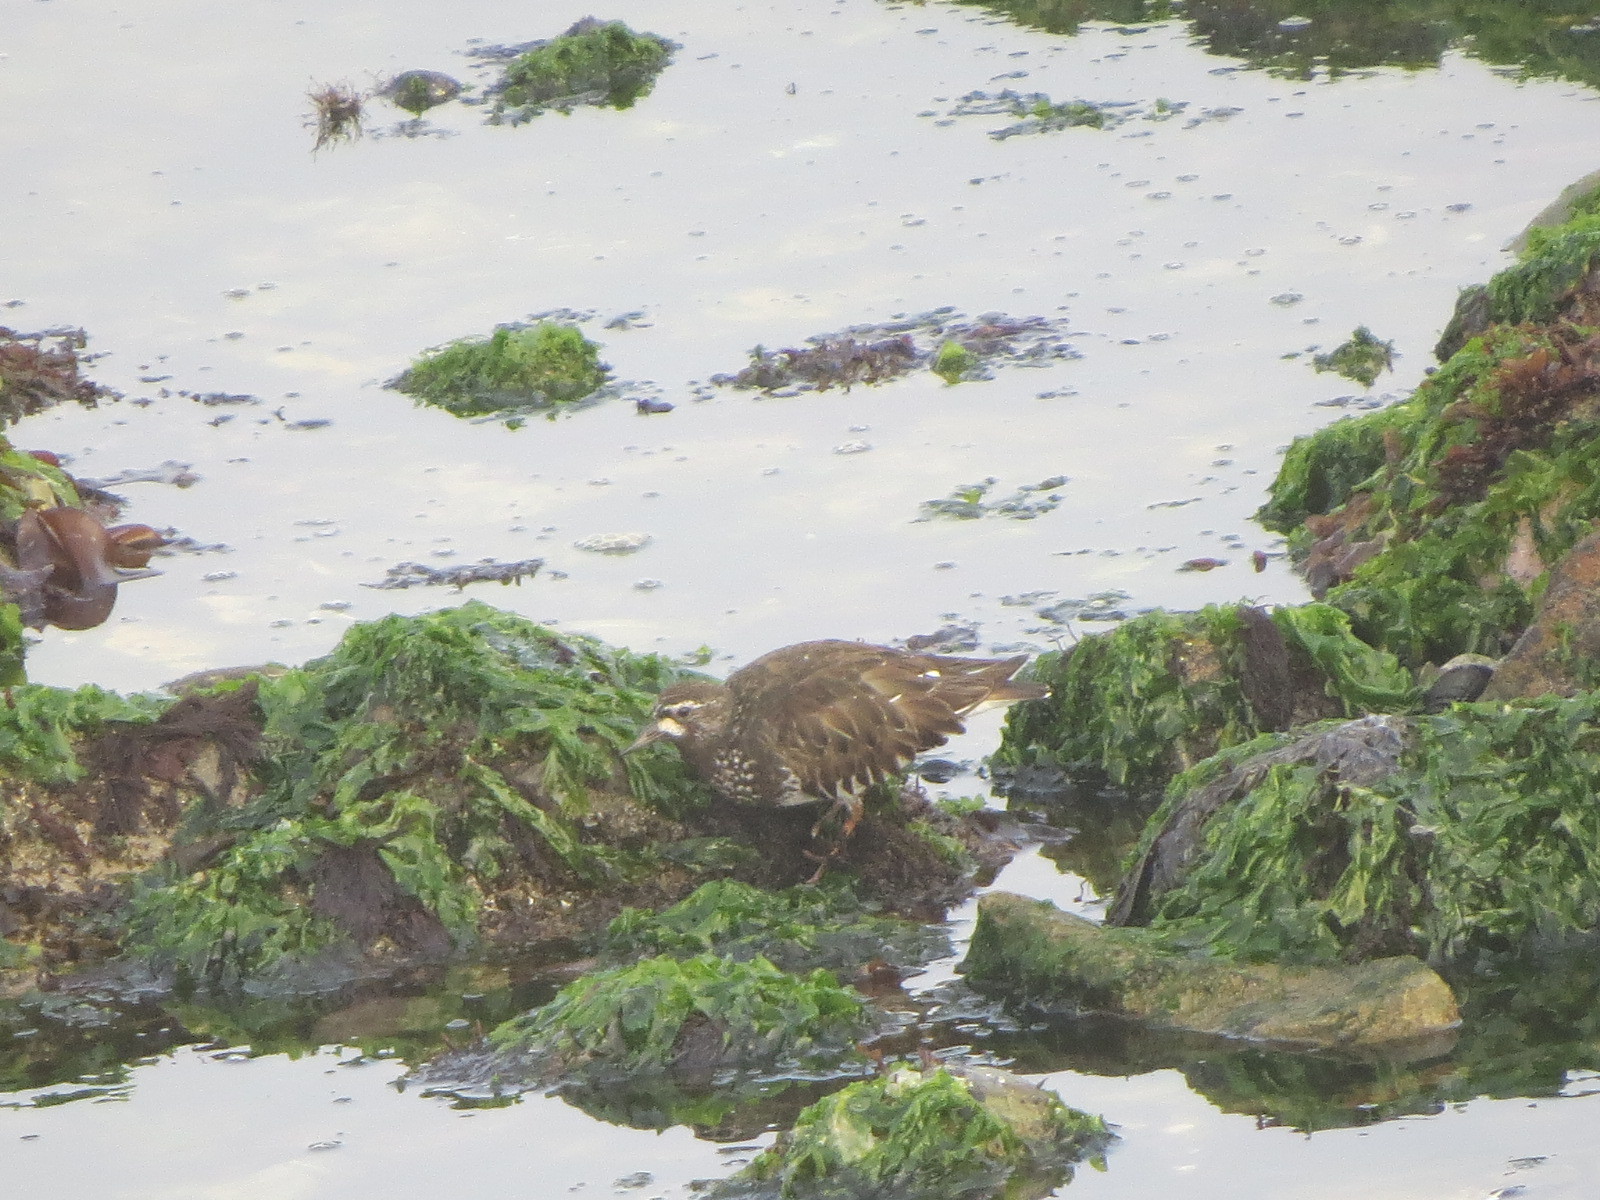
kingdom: Animalia
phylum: Chordata
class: Aves
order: Charadriiformes
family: Scolopacidae
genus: Arenaria
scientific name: Arenaria melanocephala
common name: Black turnstone
